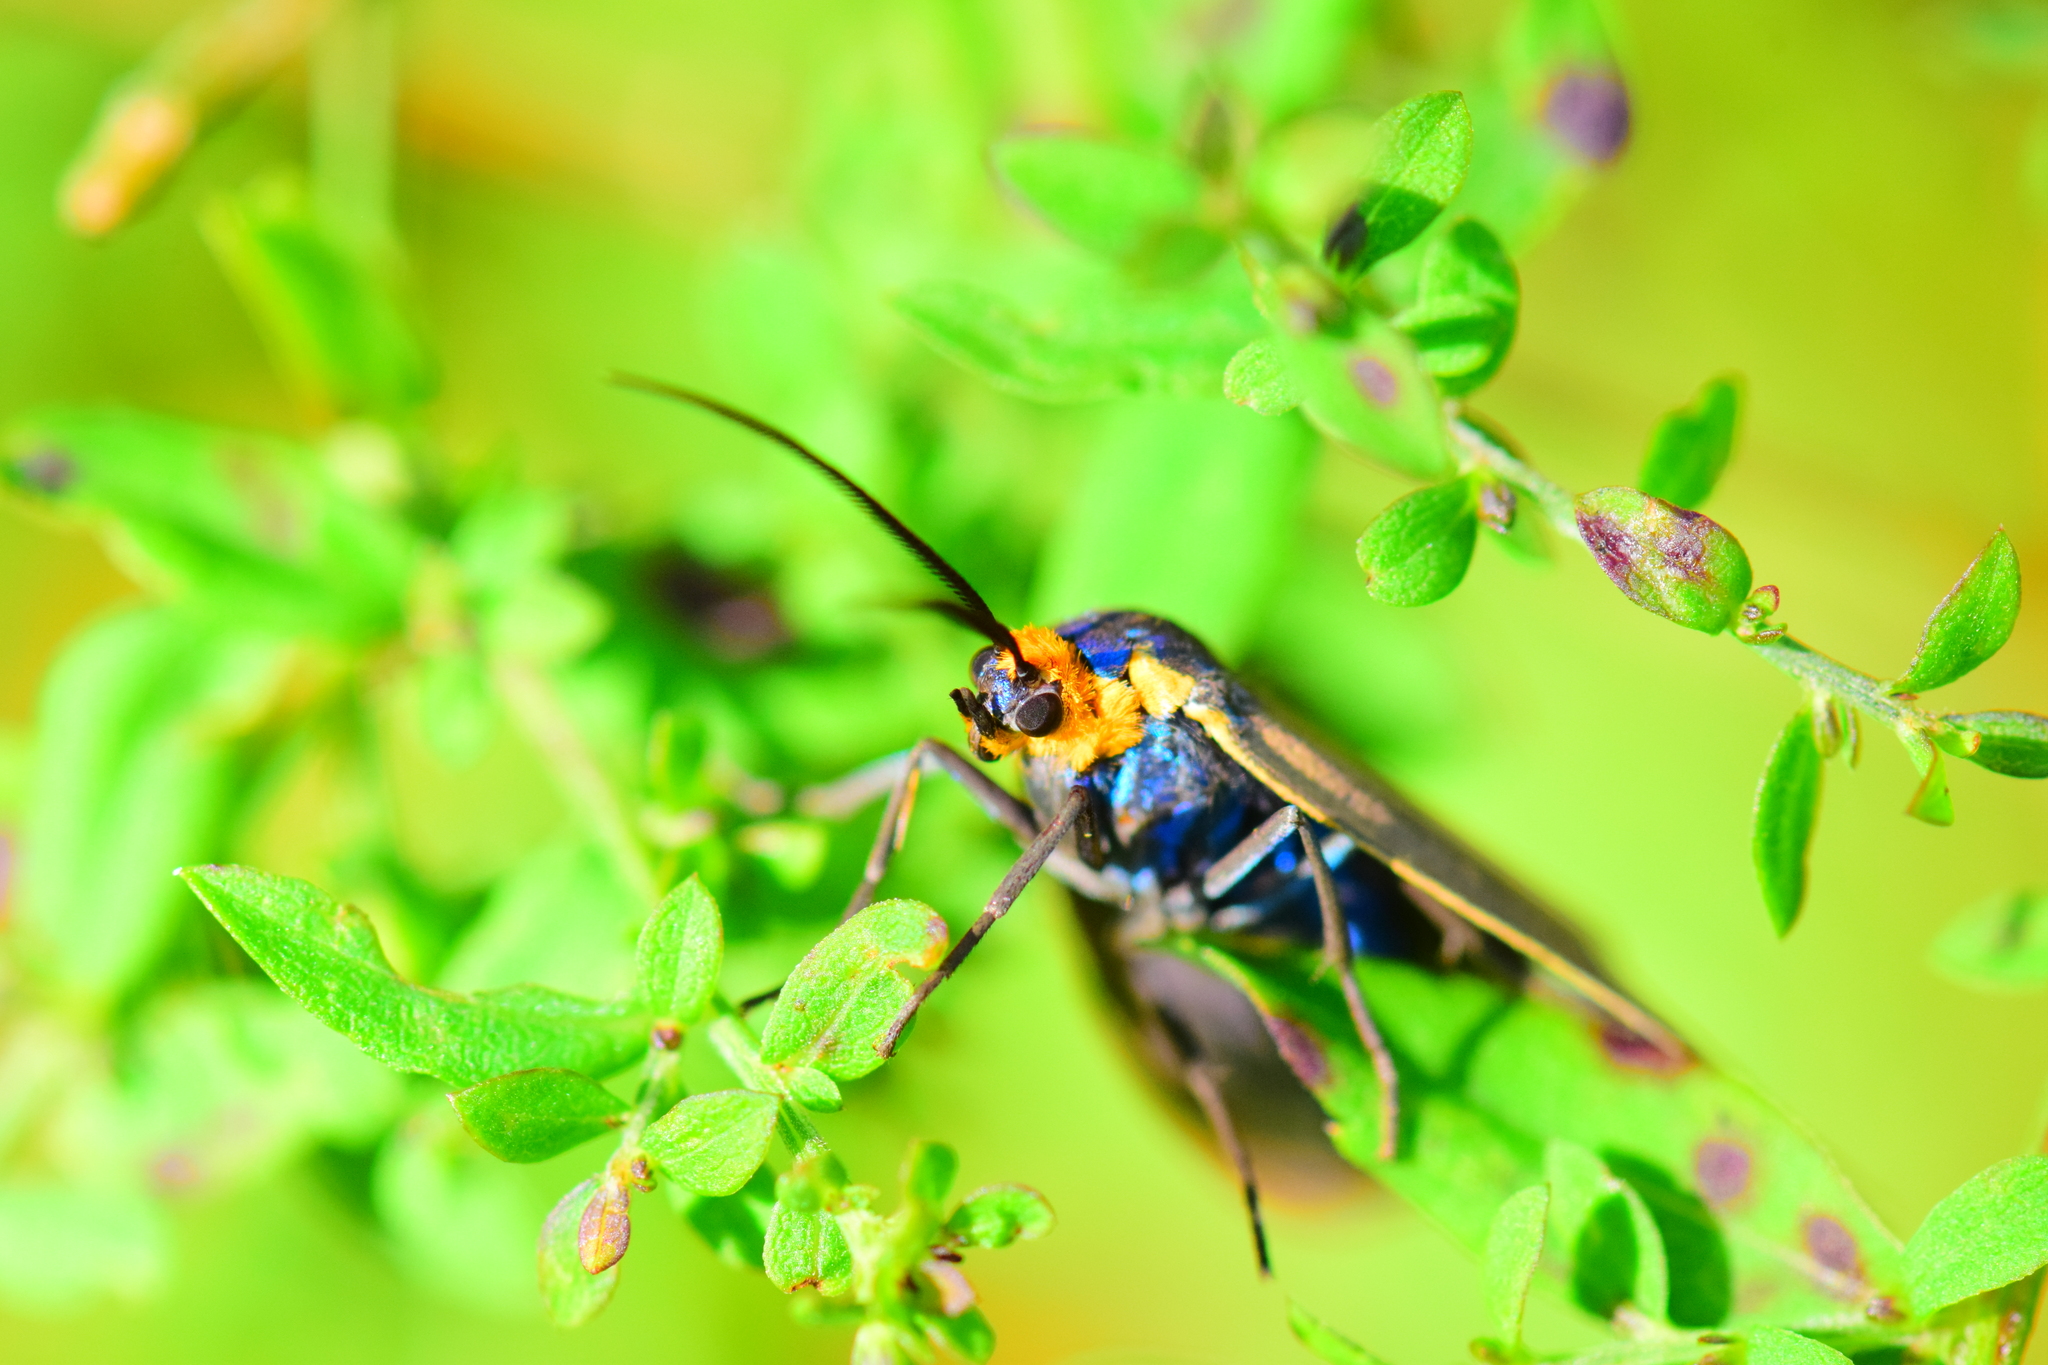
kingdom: Animalia
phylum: Arthropoda
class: Insecta
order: Lepidoptera
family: Erebidae
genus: Ctenucha
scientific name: Ctenucha virginica
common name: Virginia ctenucha moth
